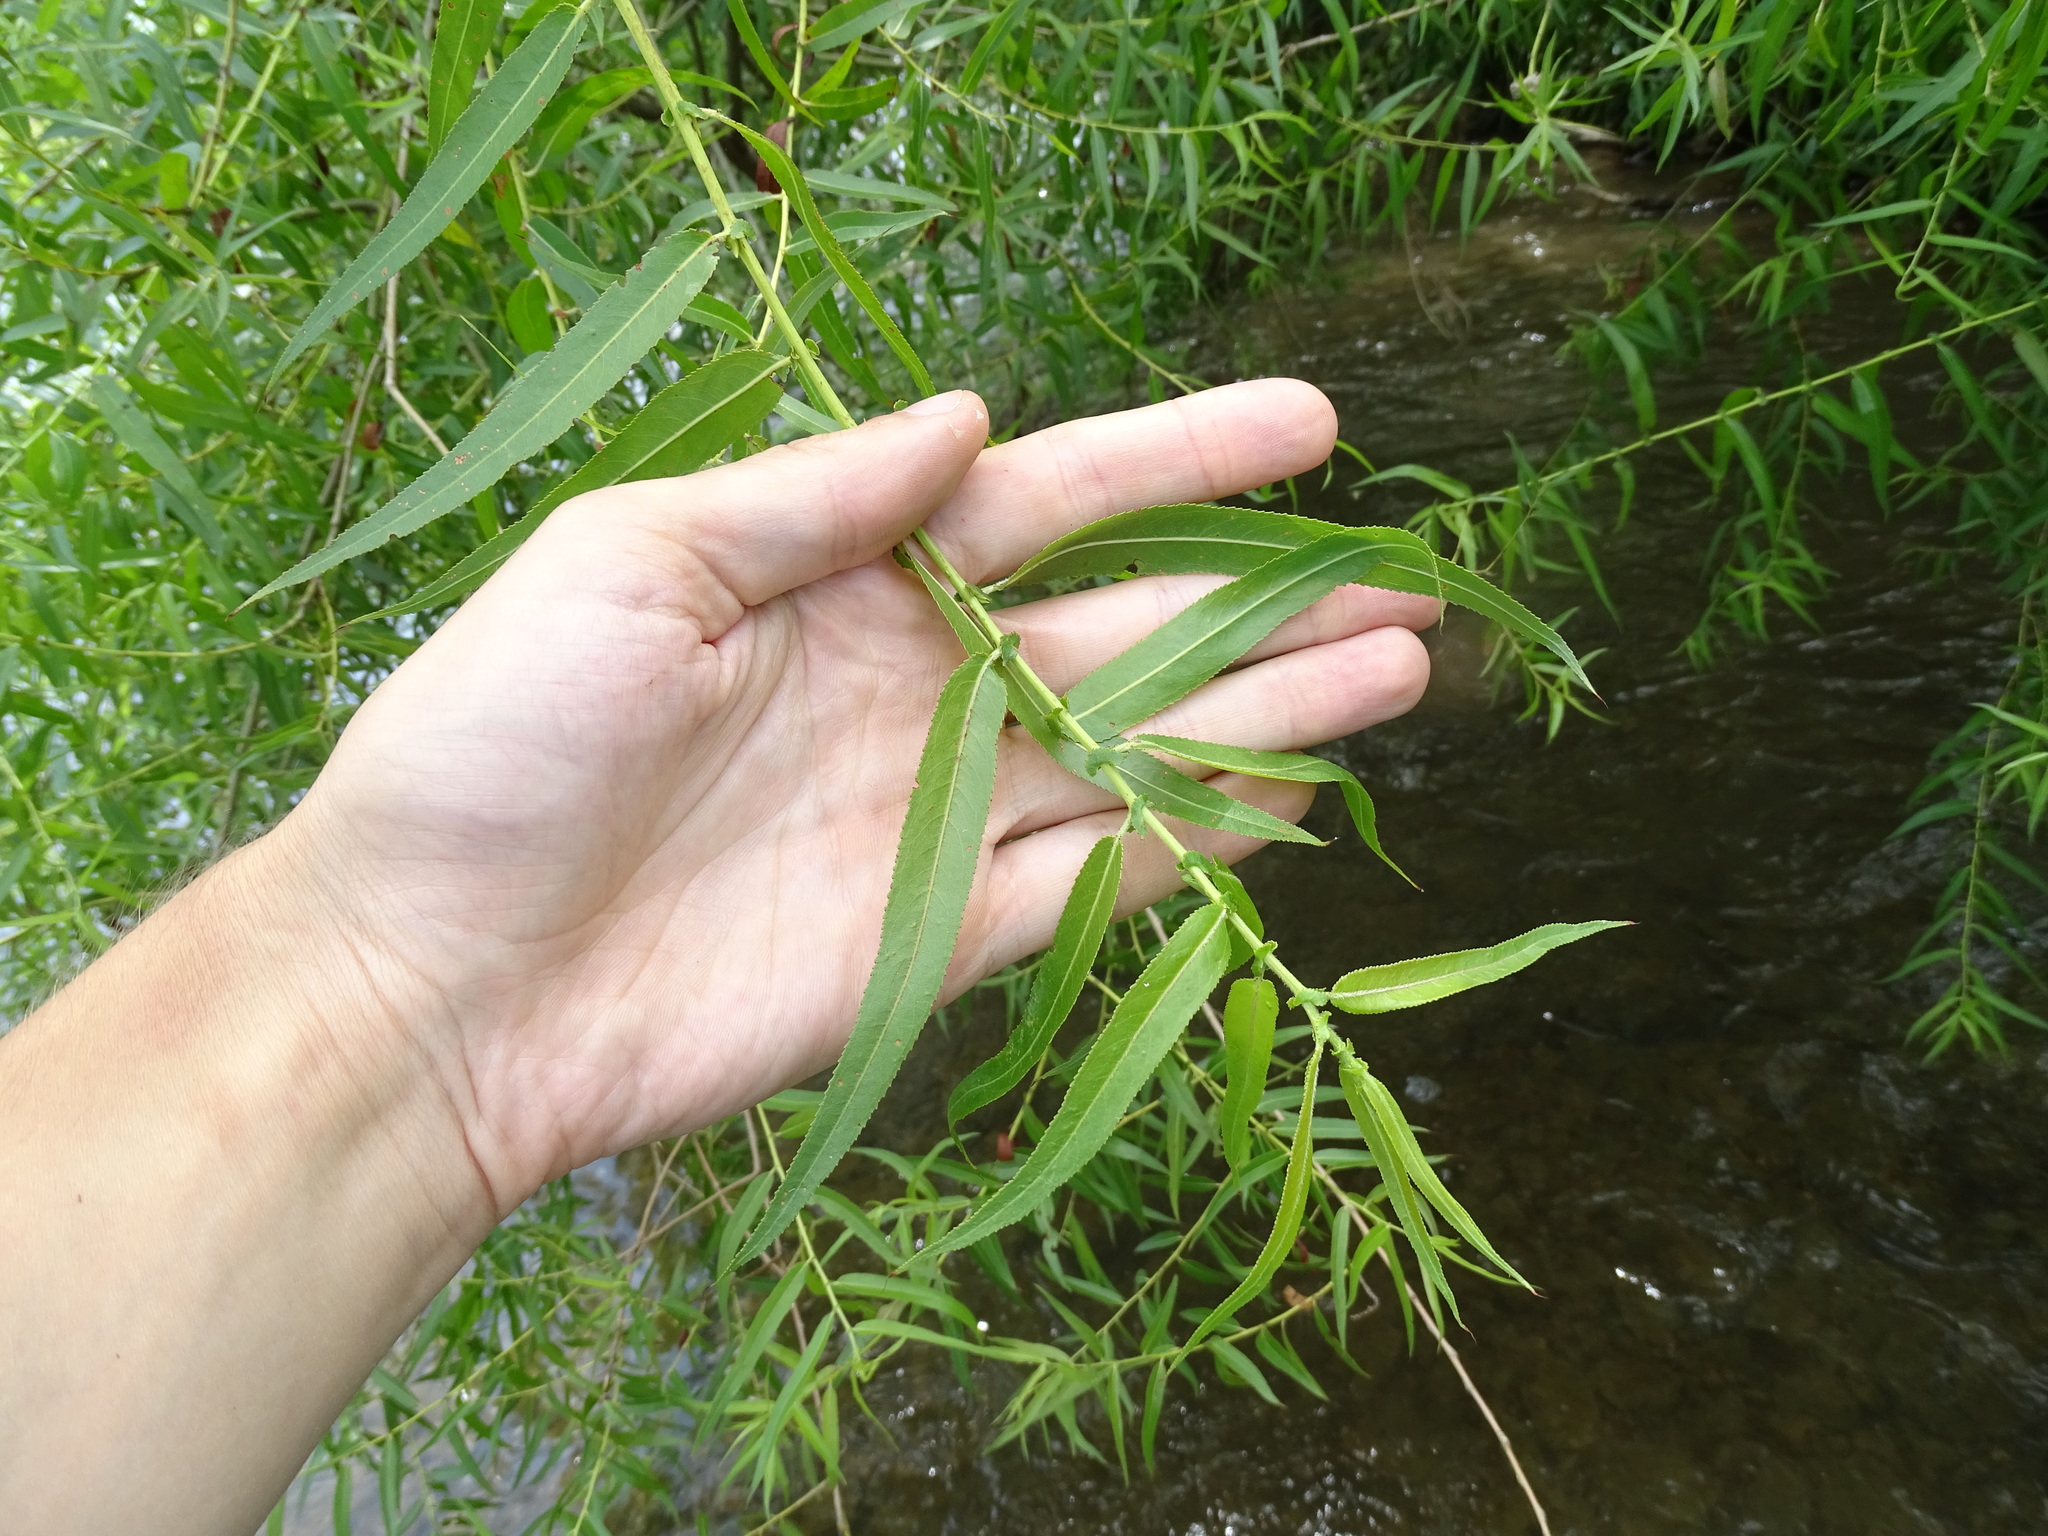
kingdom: Plantae
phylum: Tracheophyta
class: Magnoliopsida
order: Malpighiales
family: Salicaceae
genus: Salix
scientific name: Salix nigra
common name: Black willow
